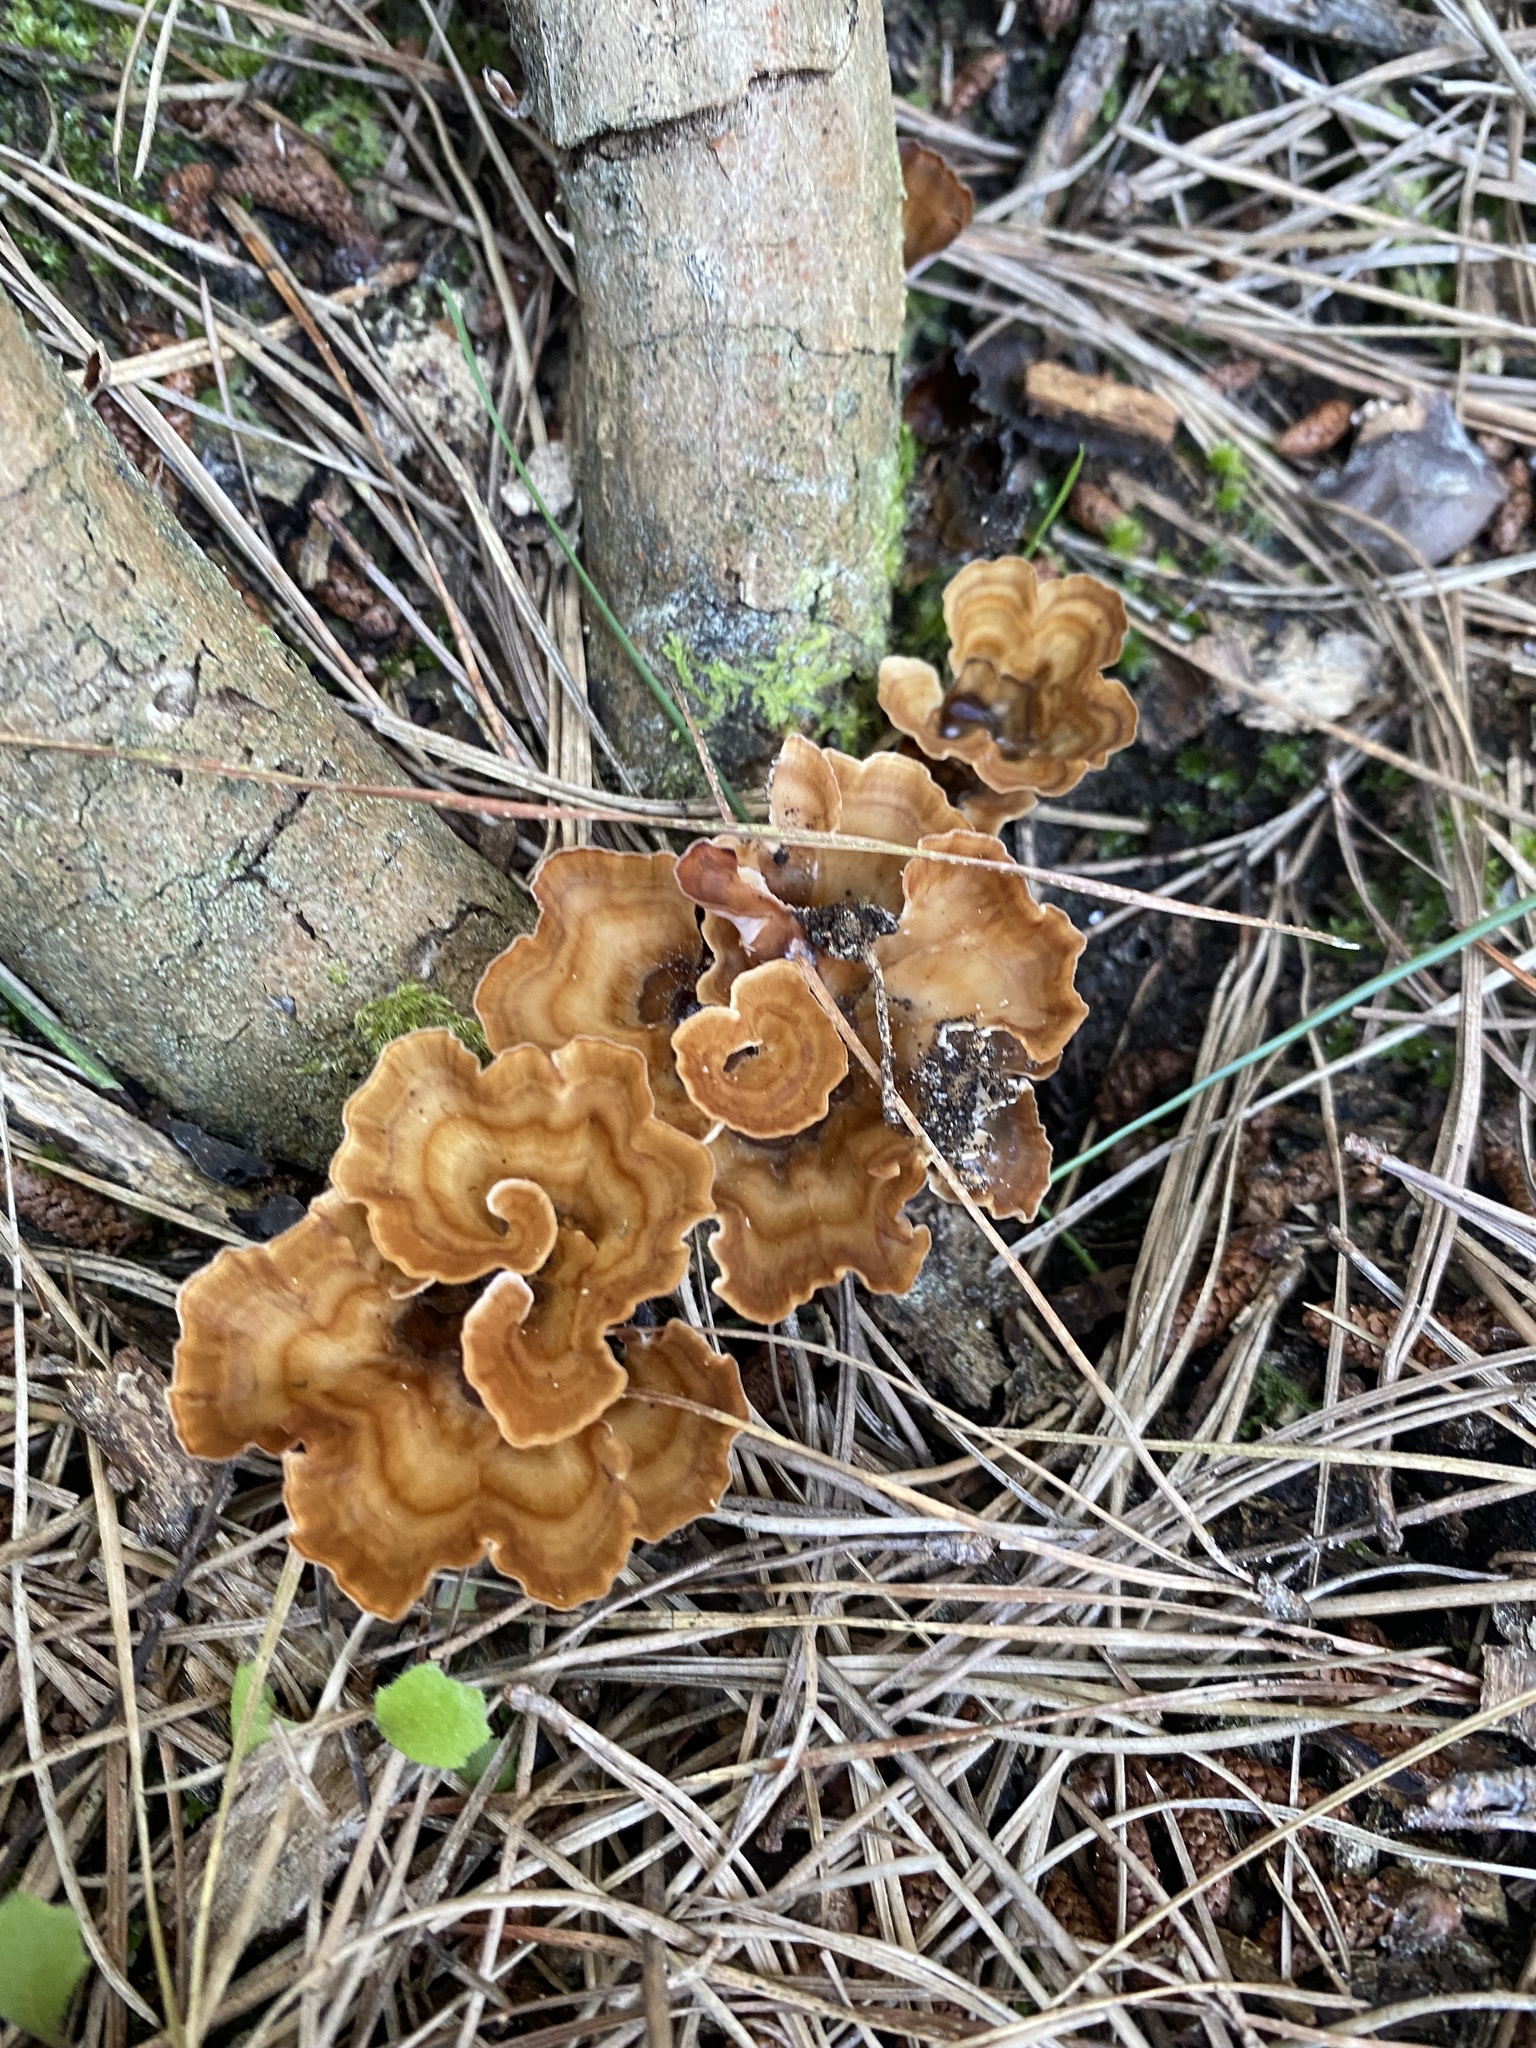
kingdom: Fungi
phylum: Basidiomycota
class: Agaricomycetes
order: Polyporales
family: Podoscyphaceae
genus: Podoscypha
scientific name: Podoscypha petalodes
